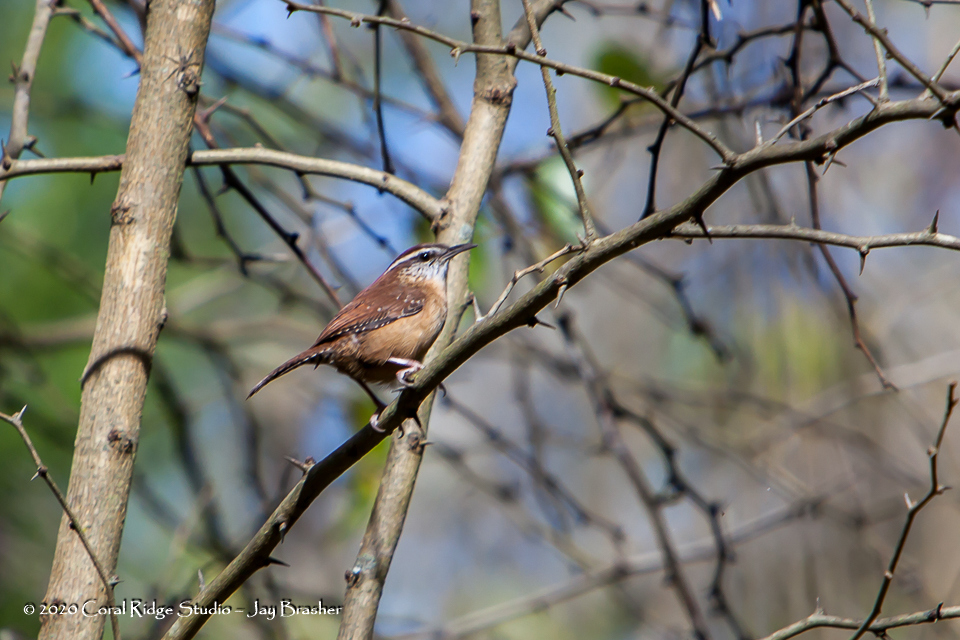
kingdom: Animalia
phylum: Chordata
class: Aves
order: Passeriformes
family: Troglodytidae
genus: Thryothorus
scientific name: Thryothorus ludovicianus
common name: Carolina wren
